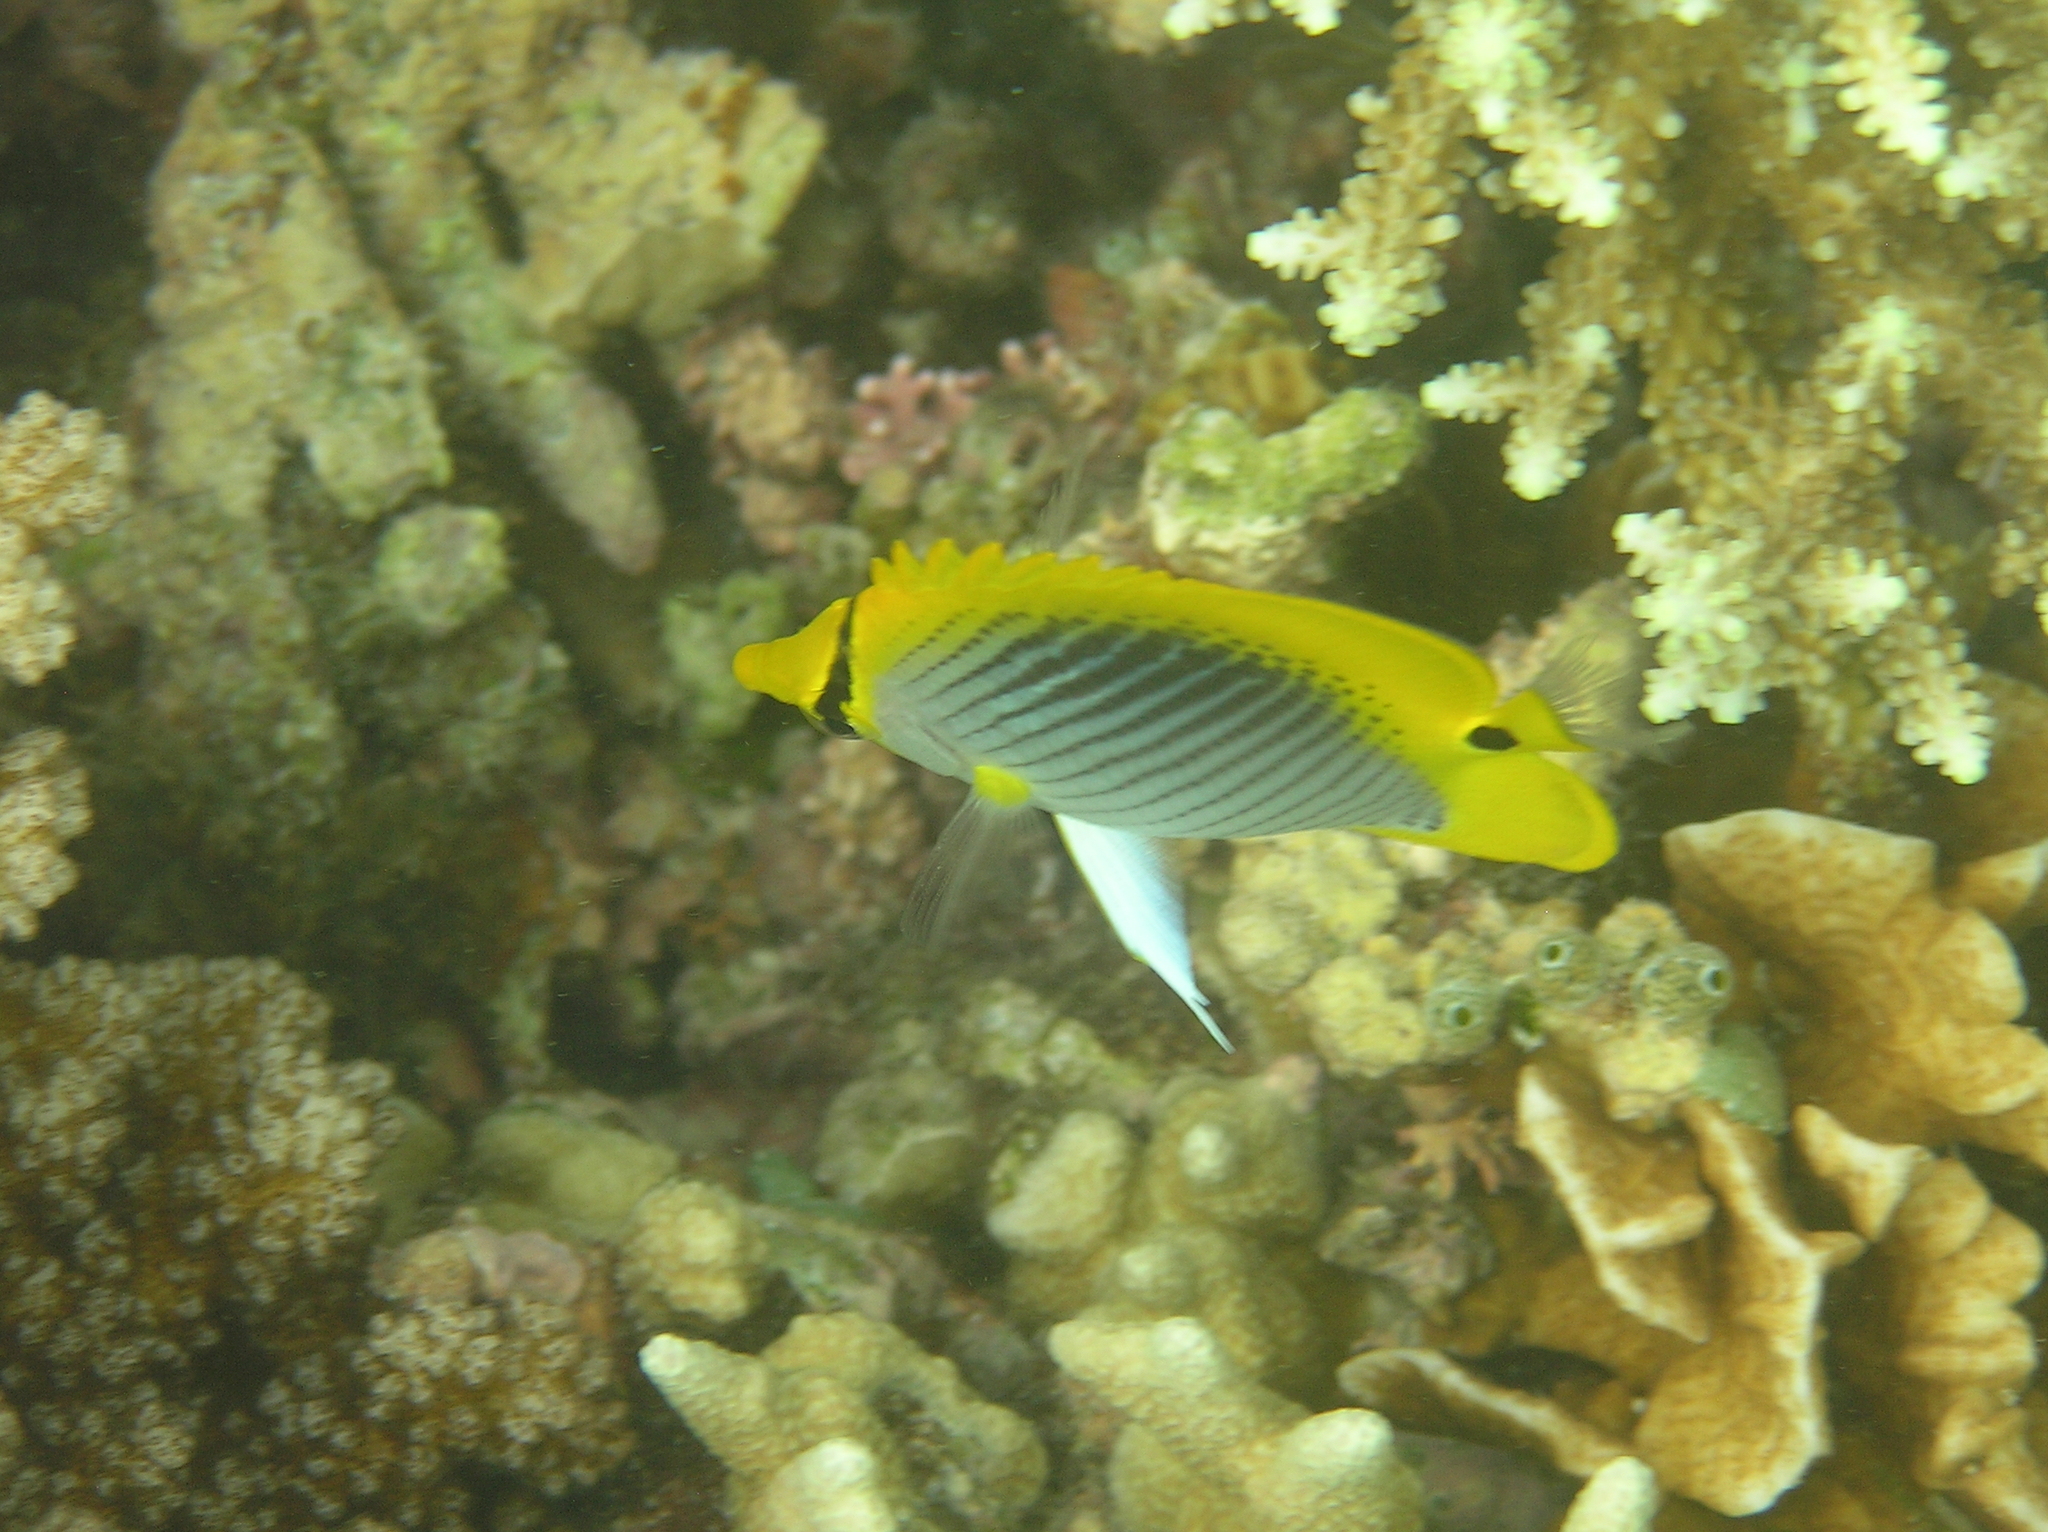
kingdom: Animalia
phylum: Chordata
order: Perciformes
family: Chaetodontidae
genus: Chaetodon
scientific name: Chaetodon ocellicaudus
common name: Spot-tail butterflyfish
